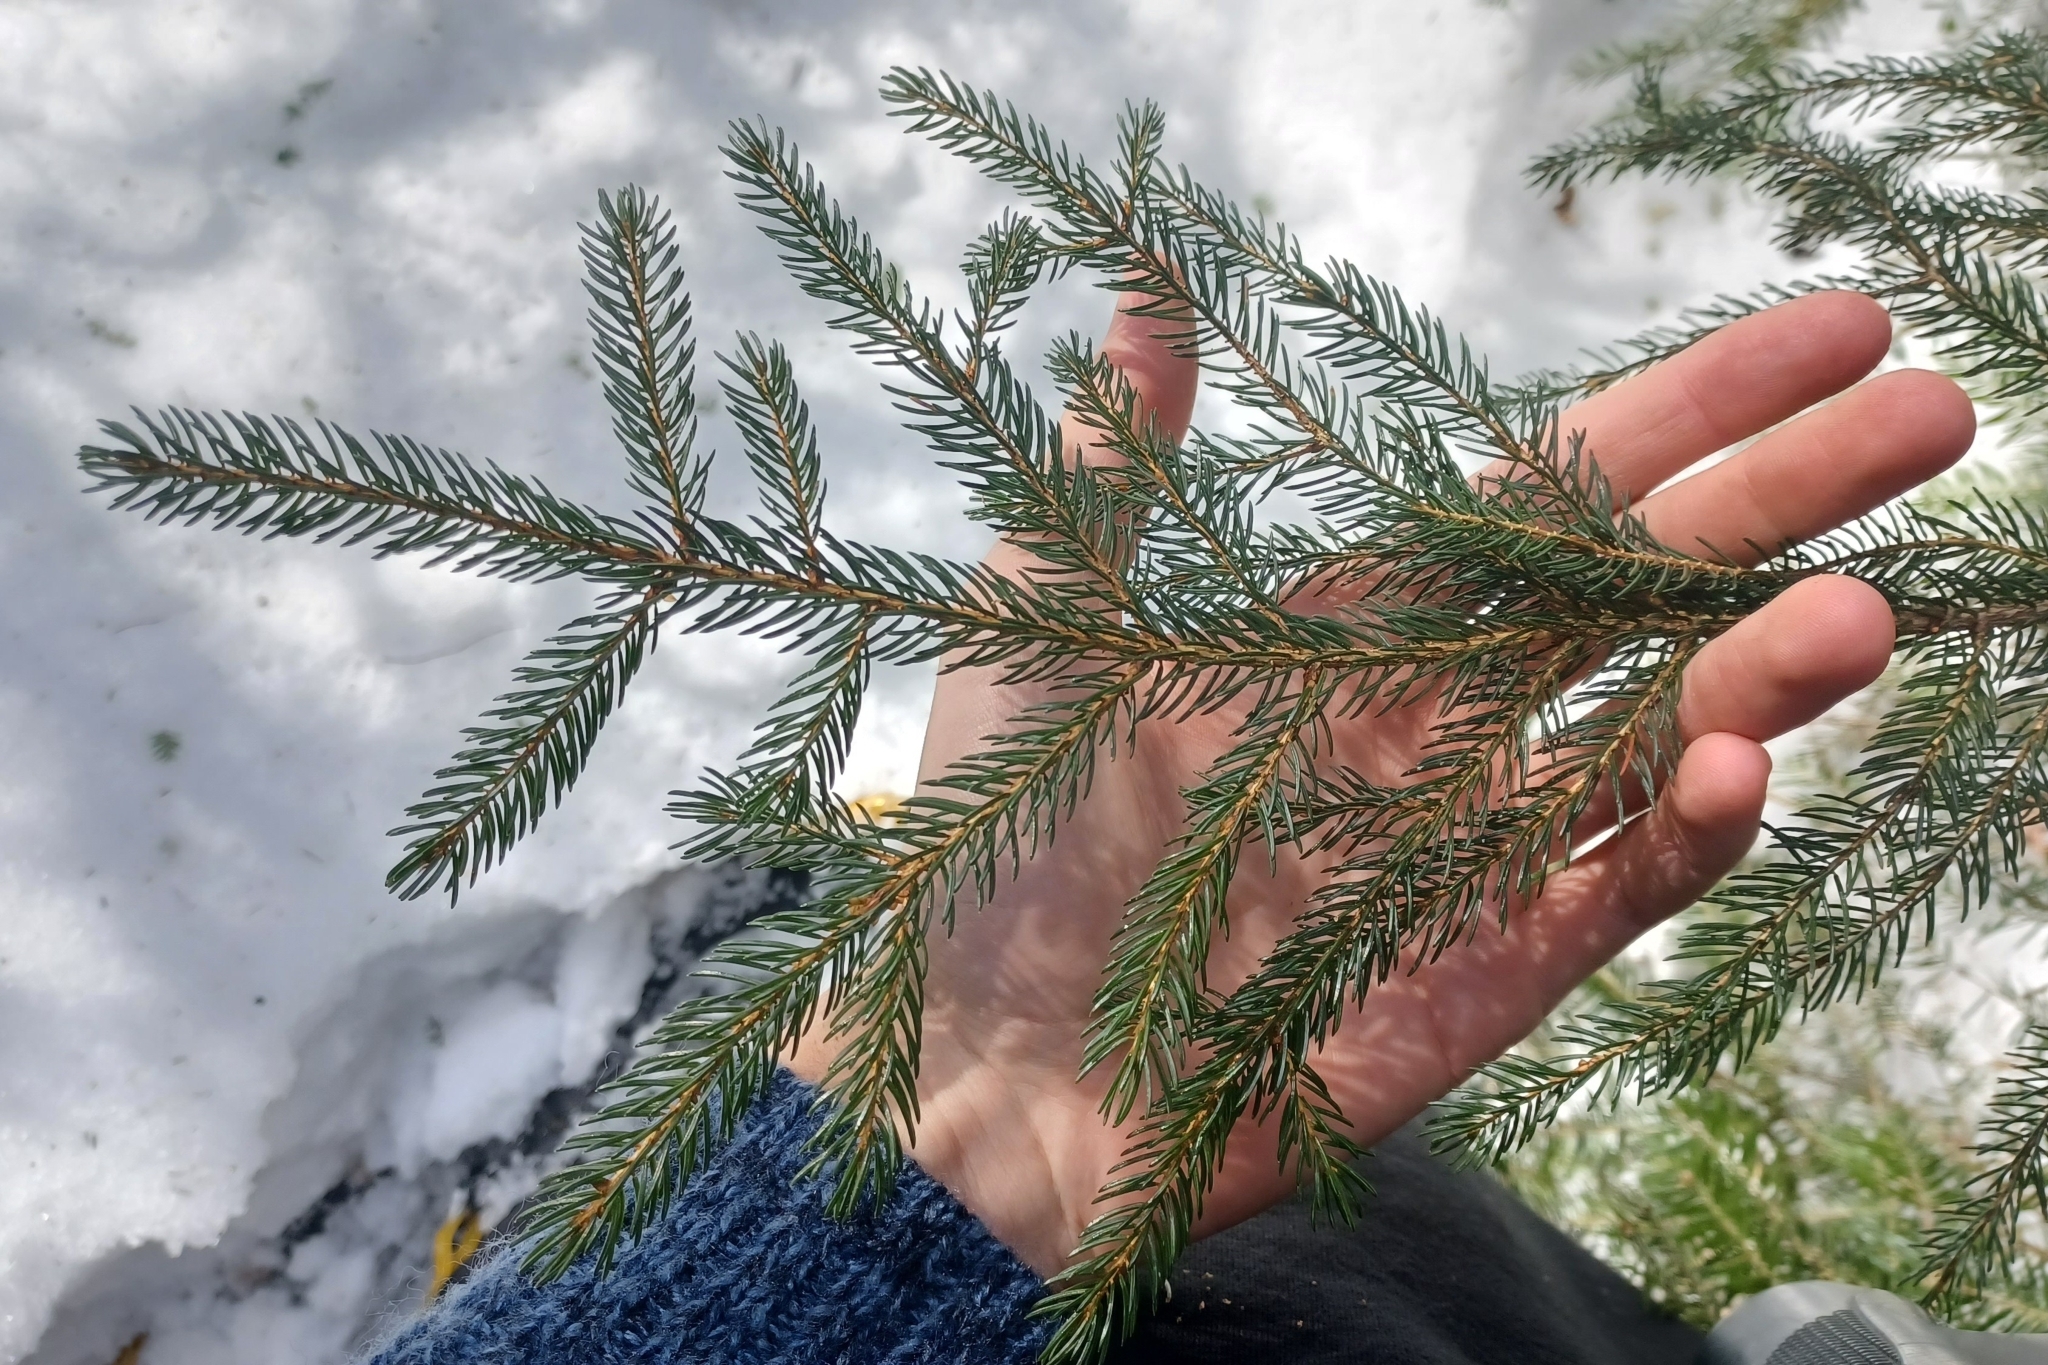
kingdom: Plantae
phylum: Tracheophyta
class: Pinopsida
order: Pinales
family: Pinaceae
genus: Picea
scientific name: Picea rubens
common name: Red spruce
